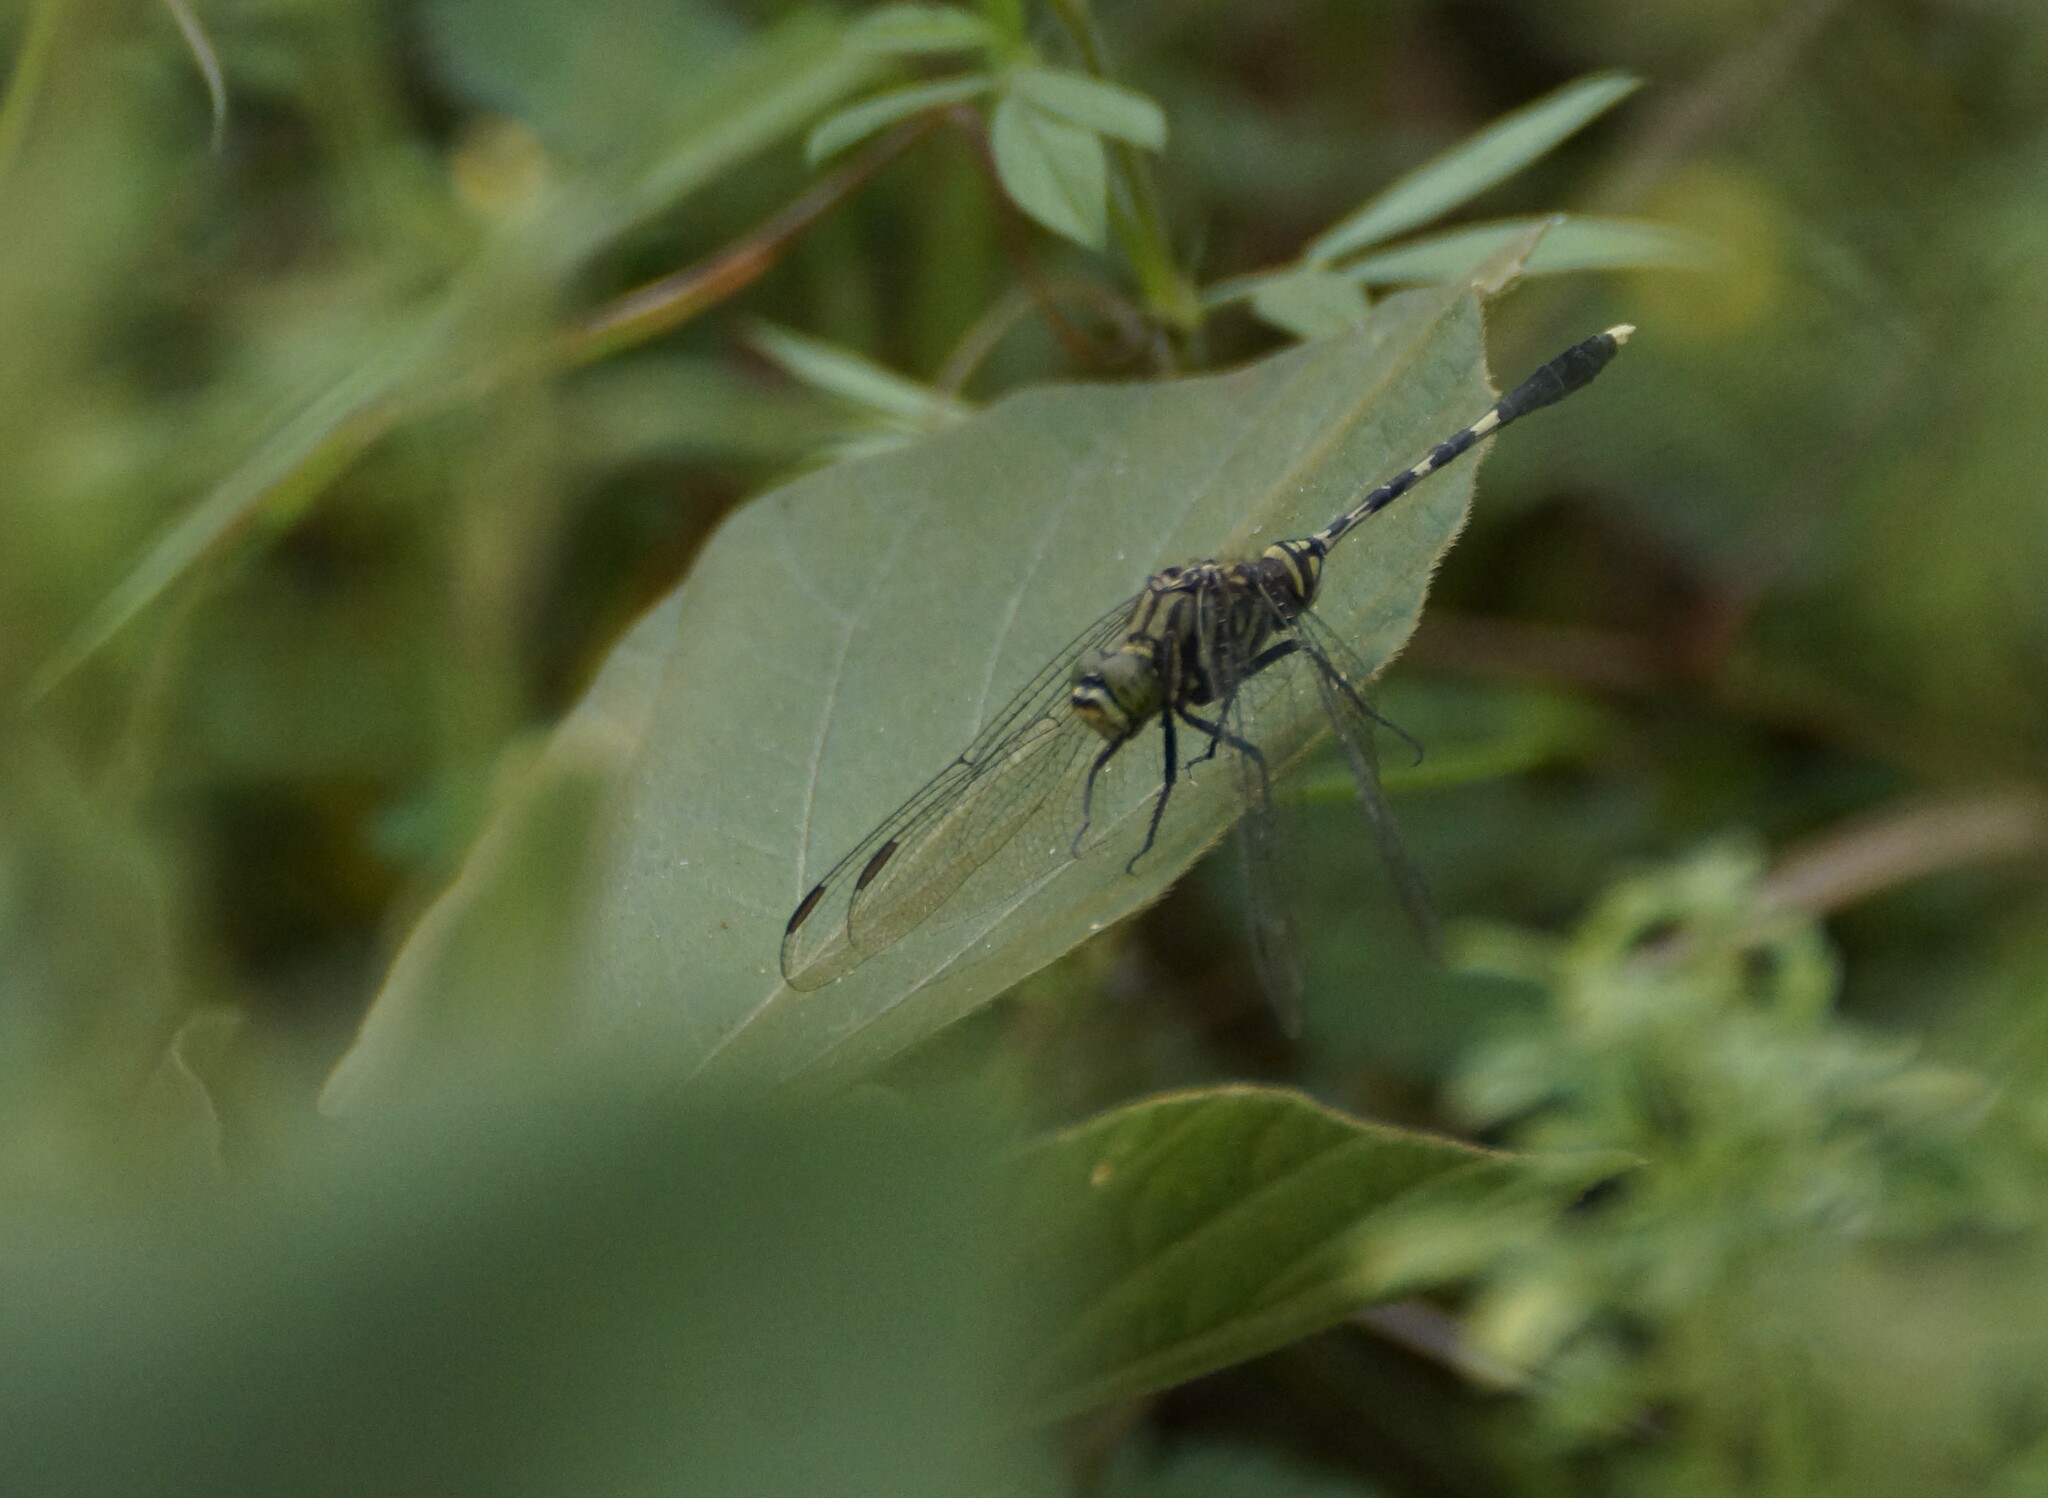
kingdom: Animalia
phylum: Arthropoda
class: Insecta
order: Odonata
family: Libellulidae
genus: Orthetrum
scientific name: Orthetrum serapia
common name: Green skimmer
